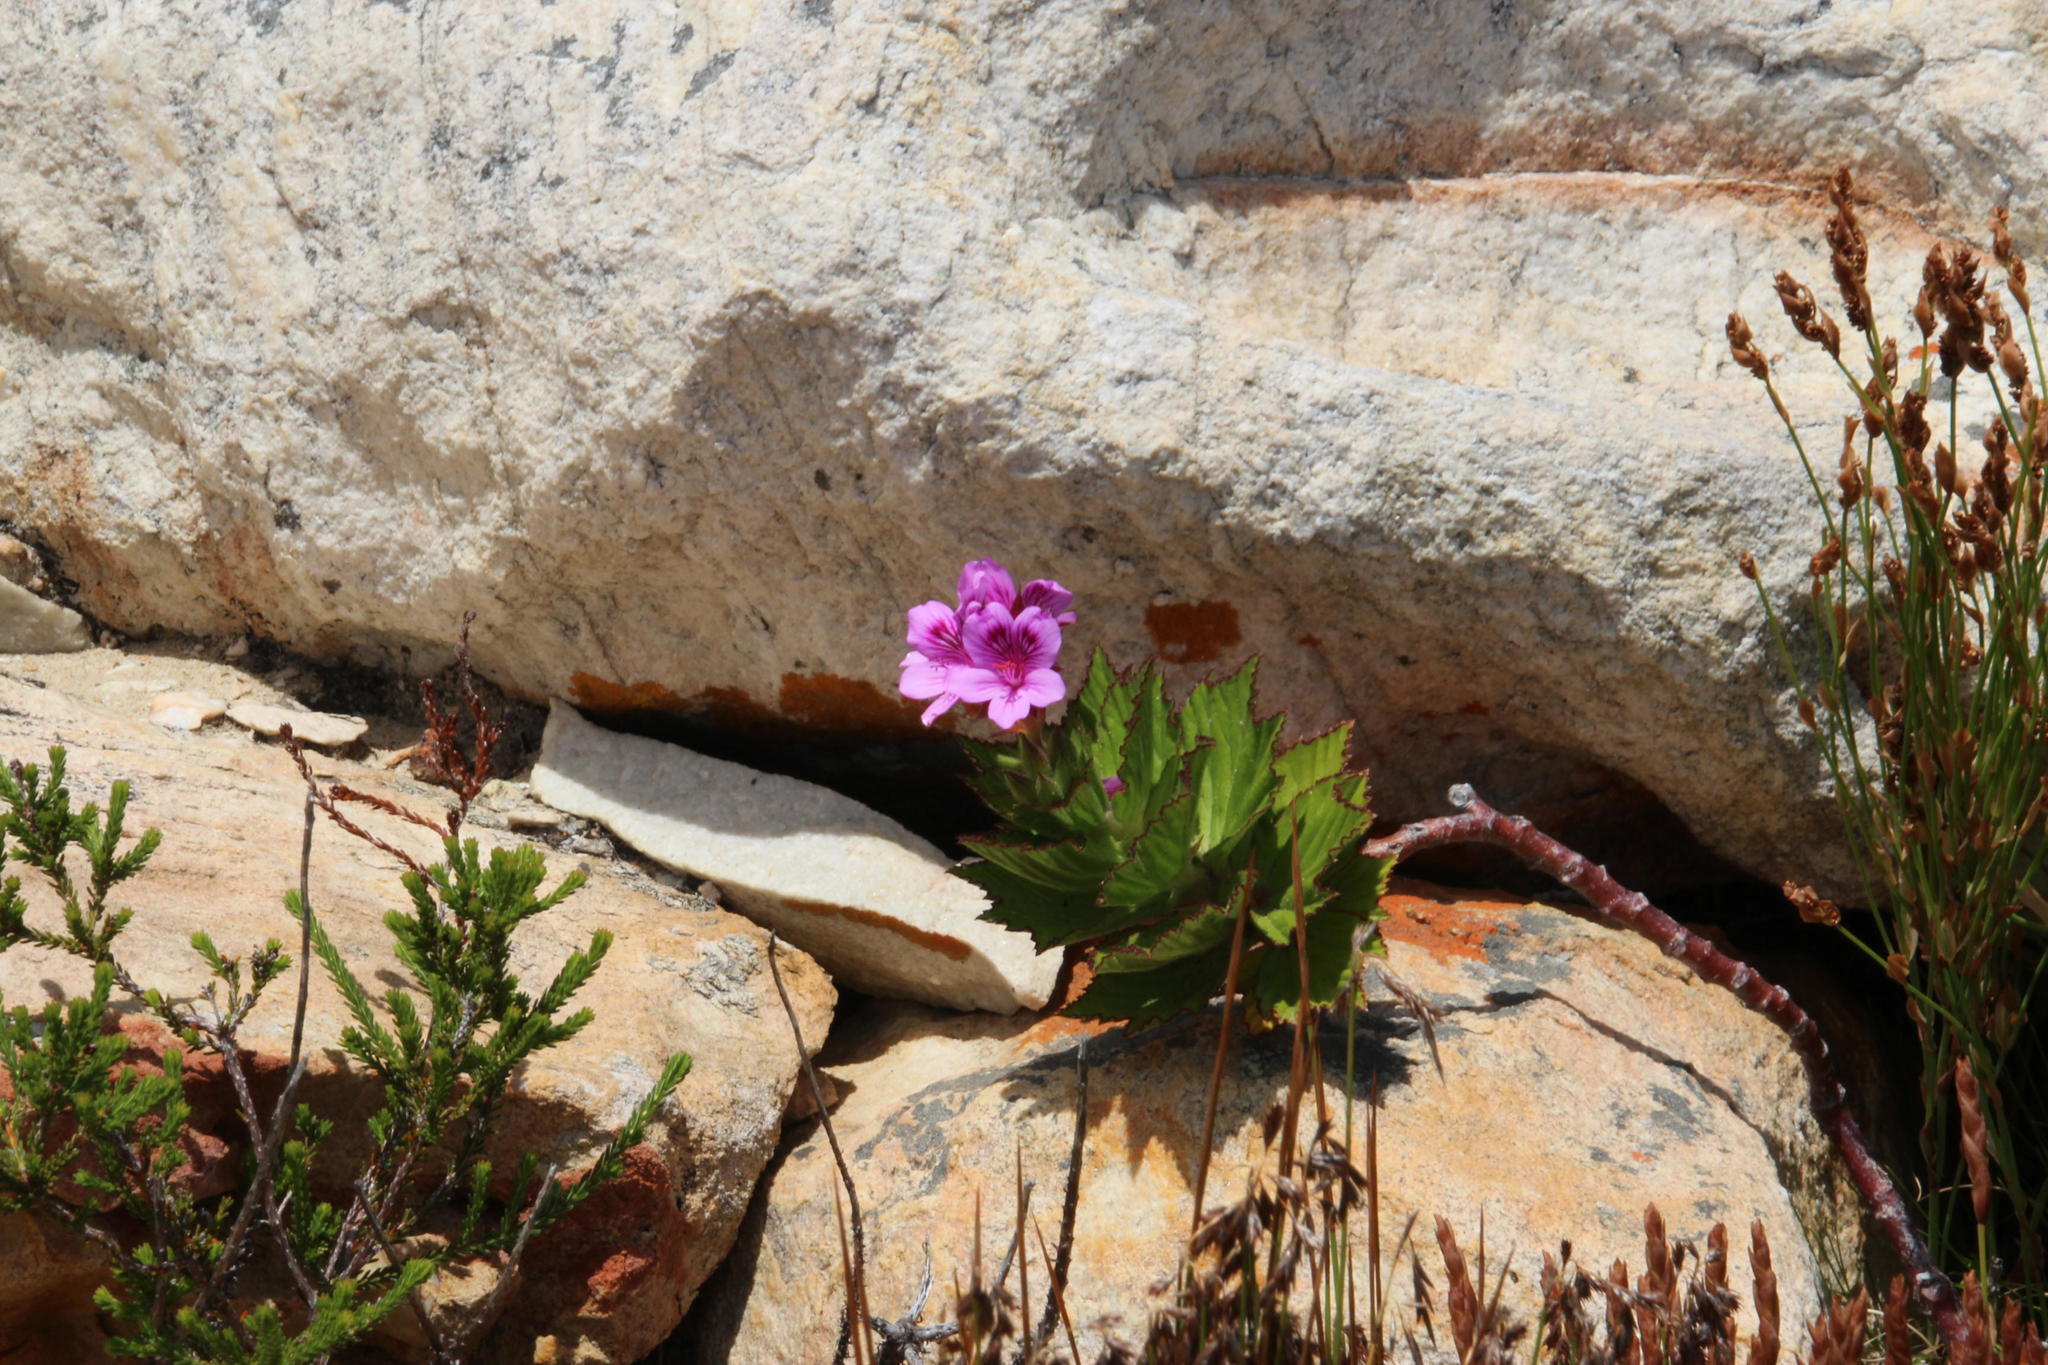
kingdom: Plantae
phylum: Tracheophyta
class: Magnoliopsida
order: Geraniales
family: Geraniaceae
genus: Pelargonium
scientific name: Pelargonium cucullatum
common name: Tree pelargonium
